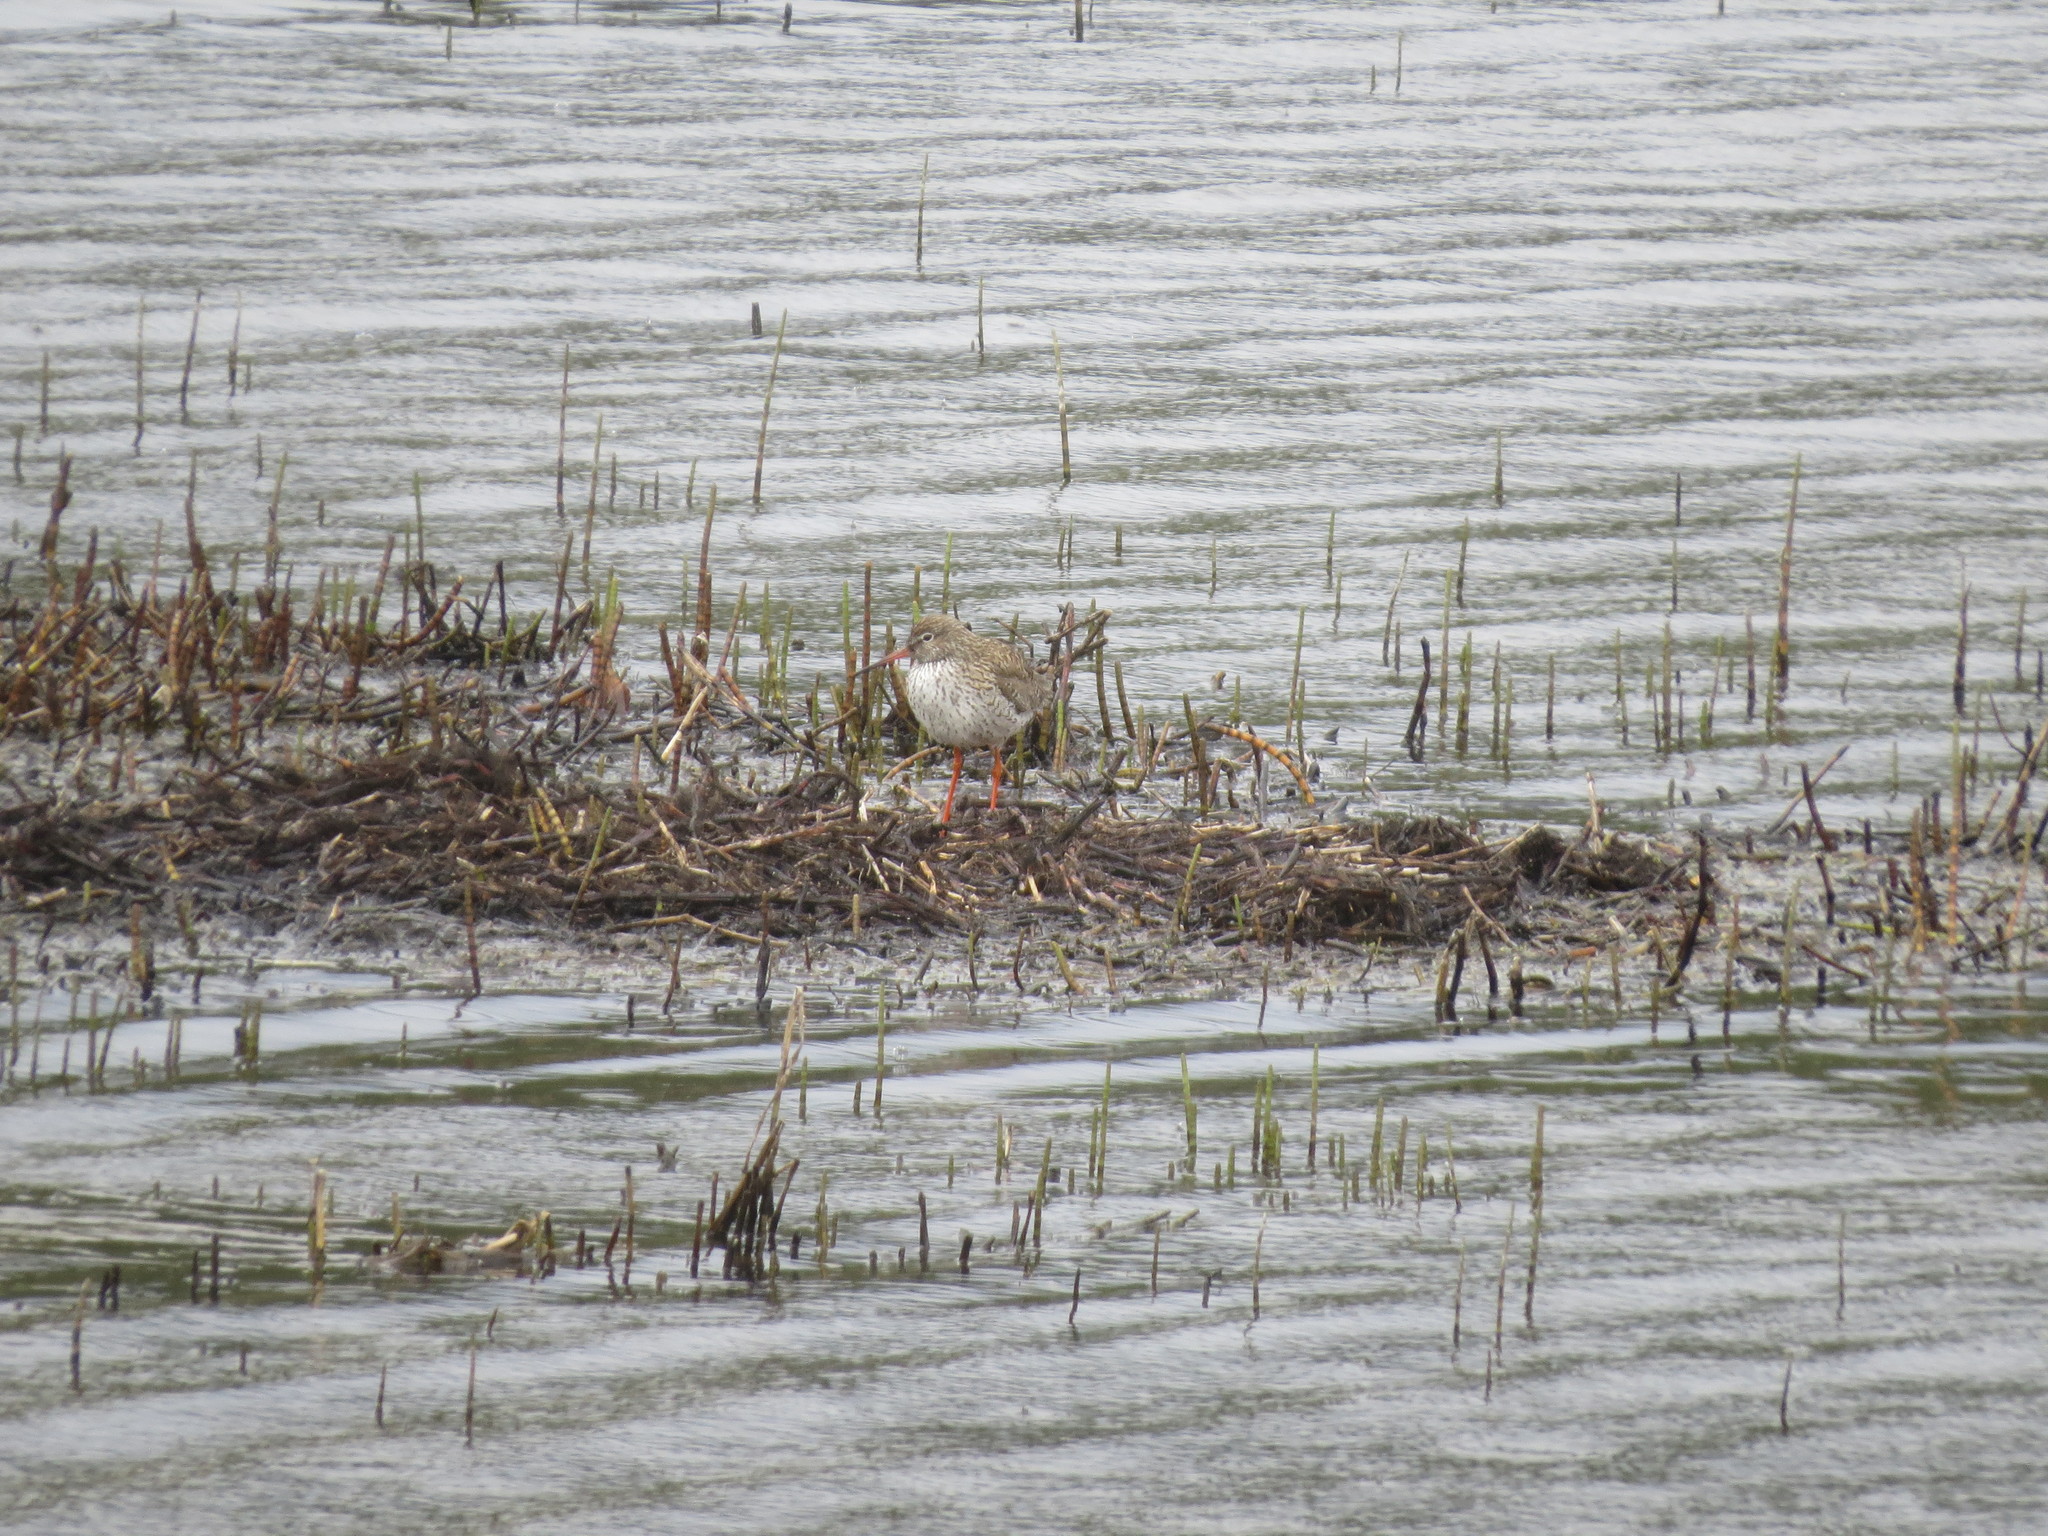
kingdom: Animalia
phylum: Chordata
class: Aves
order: Charadriiformes
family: Scolopacidae
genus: Tringa
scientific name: Tringa totanus
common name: Common redshank
